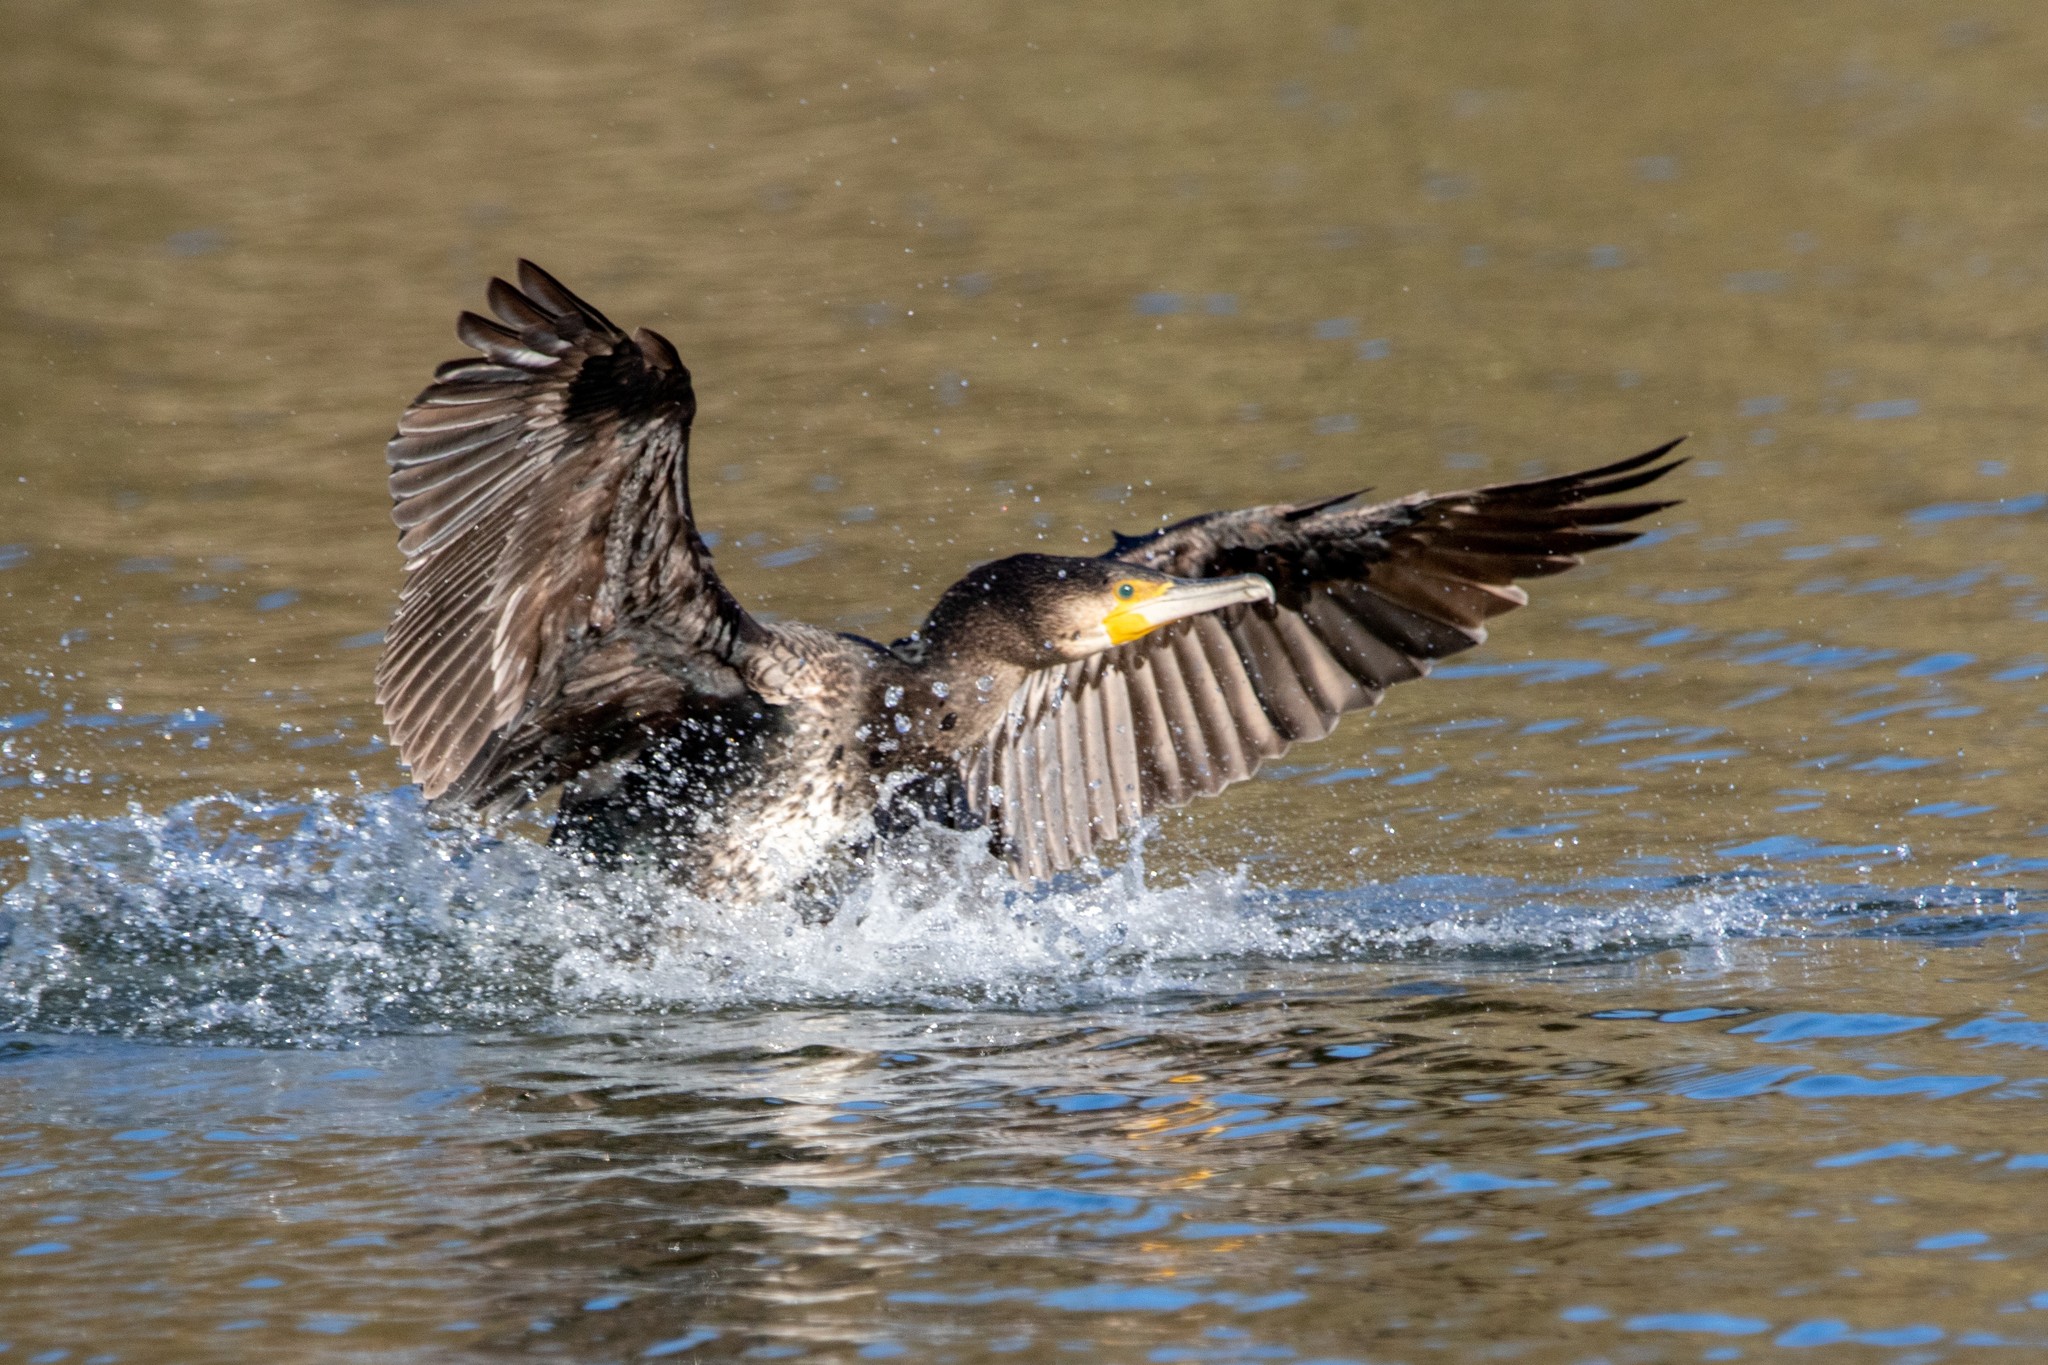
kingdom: Animalia
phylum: Chordata
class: Aves
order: Suliformes
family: Phalacrocoracidae
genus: Phalacrocorax
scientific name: Phalacrocorax carbo
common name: Great cormorant
